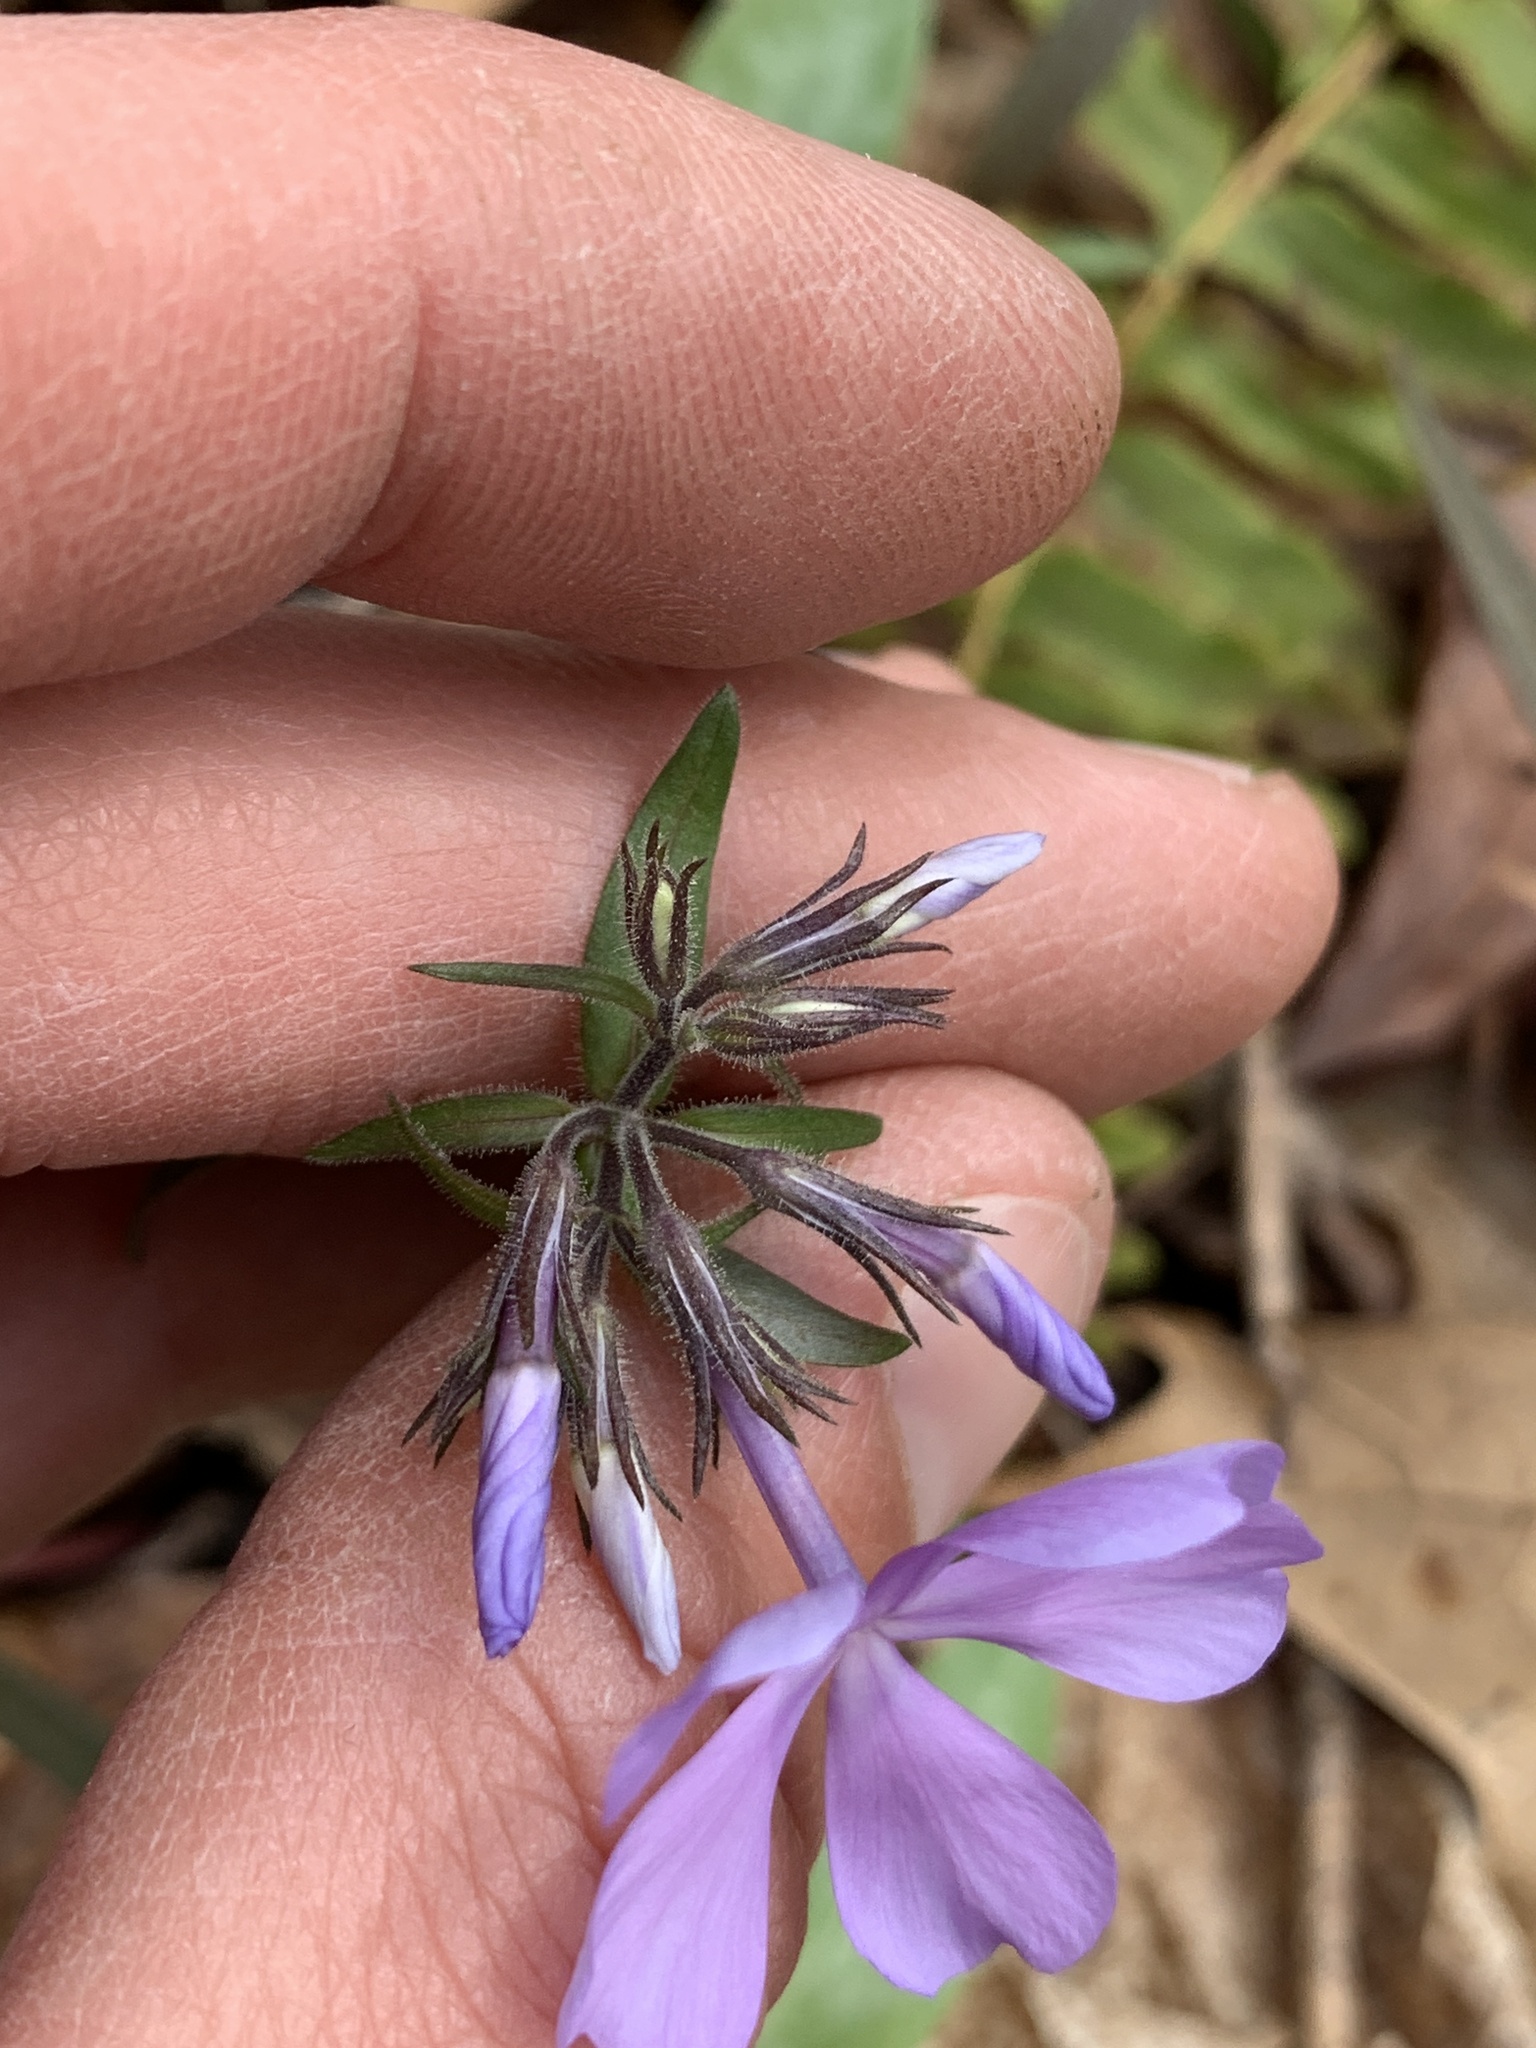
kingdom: Plantae
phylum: Tracheophyta
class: Magnoliopsida
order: Ericales
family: Polemoniaceae
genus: Phlox
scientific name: Phlox divaricata
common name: Blue phlox
